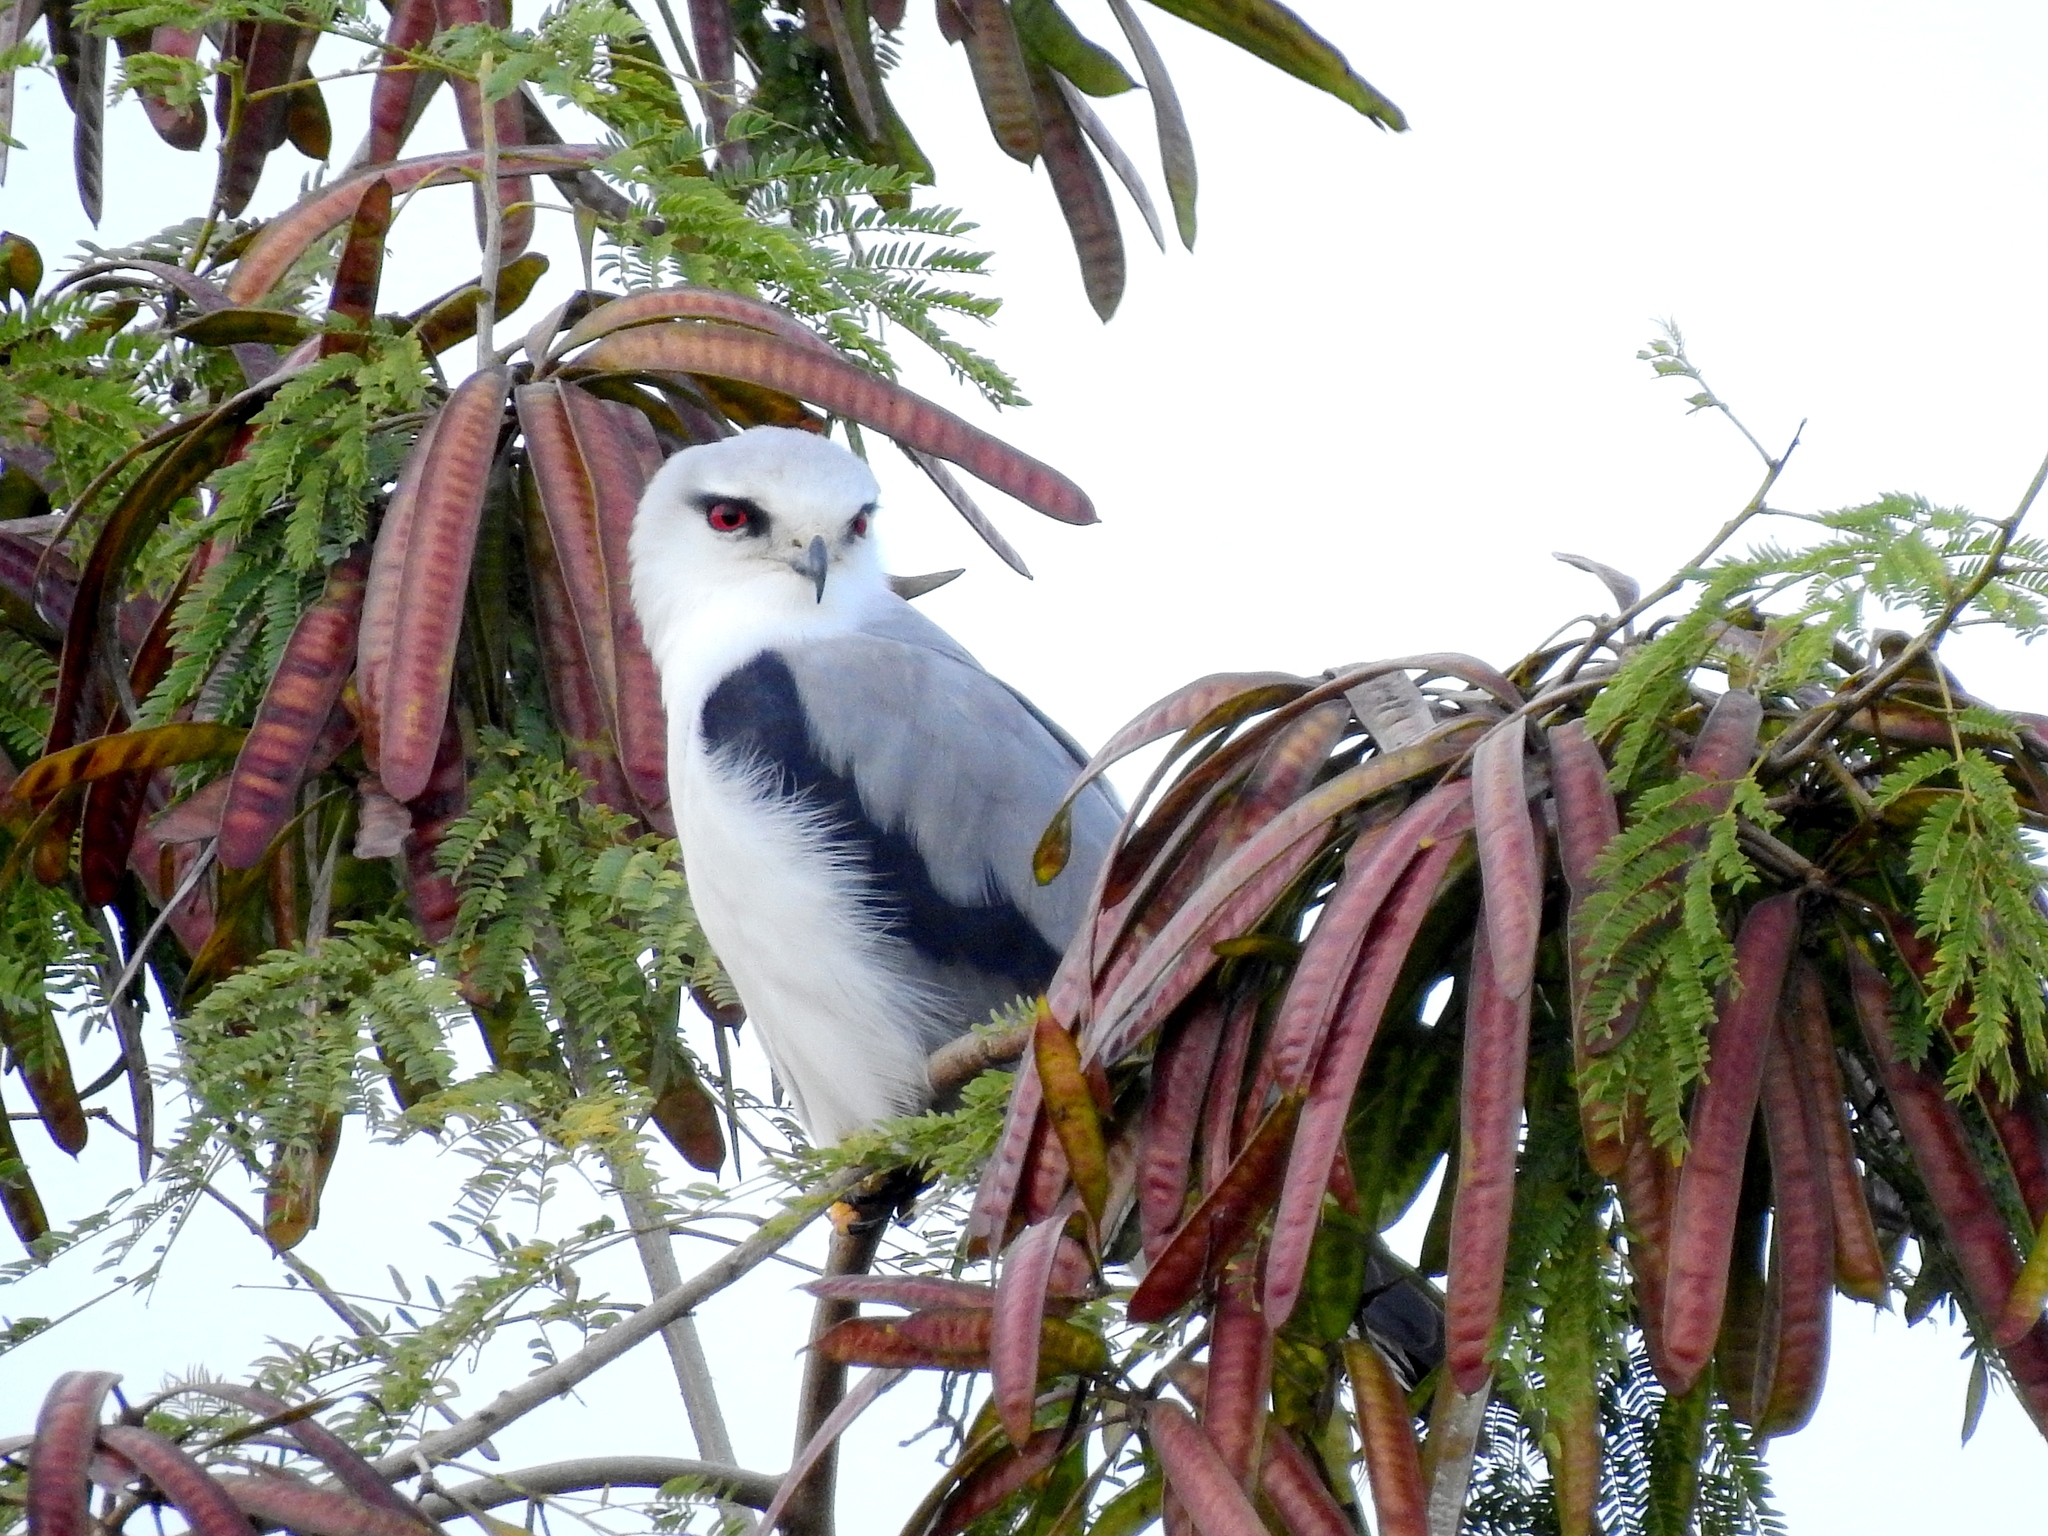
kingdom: Animalia
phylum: Chordata
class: Aves
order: Accipitriformes
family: Accipitridae
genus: Elanus
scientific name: Elanus caeruleus
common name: Black-winged kite
